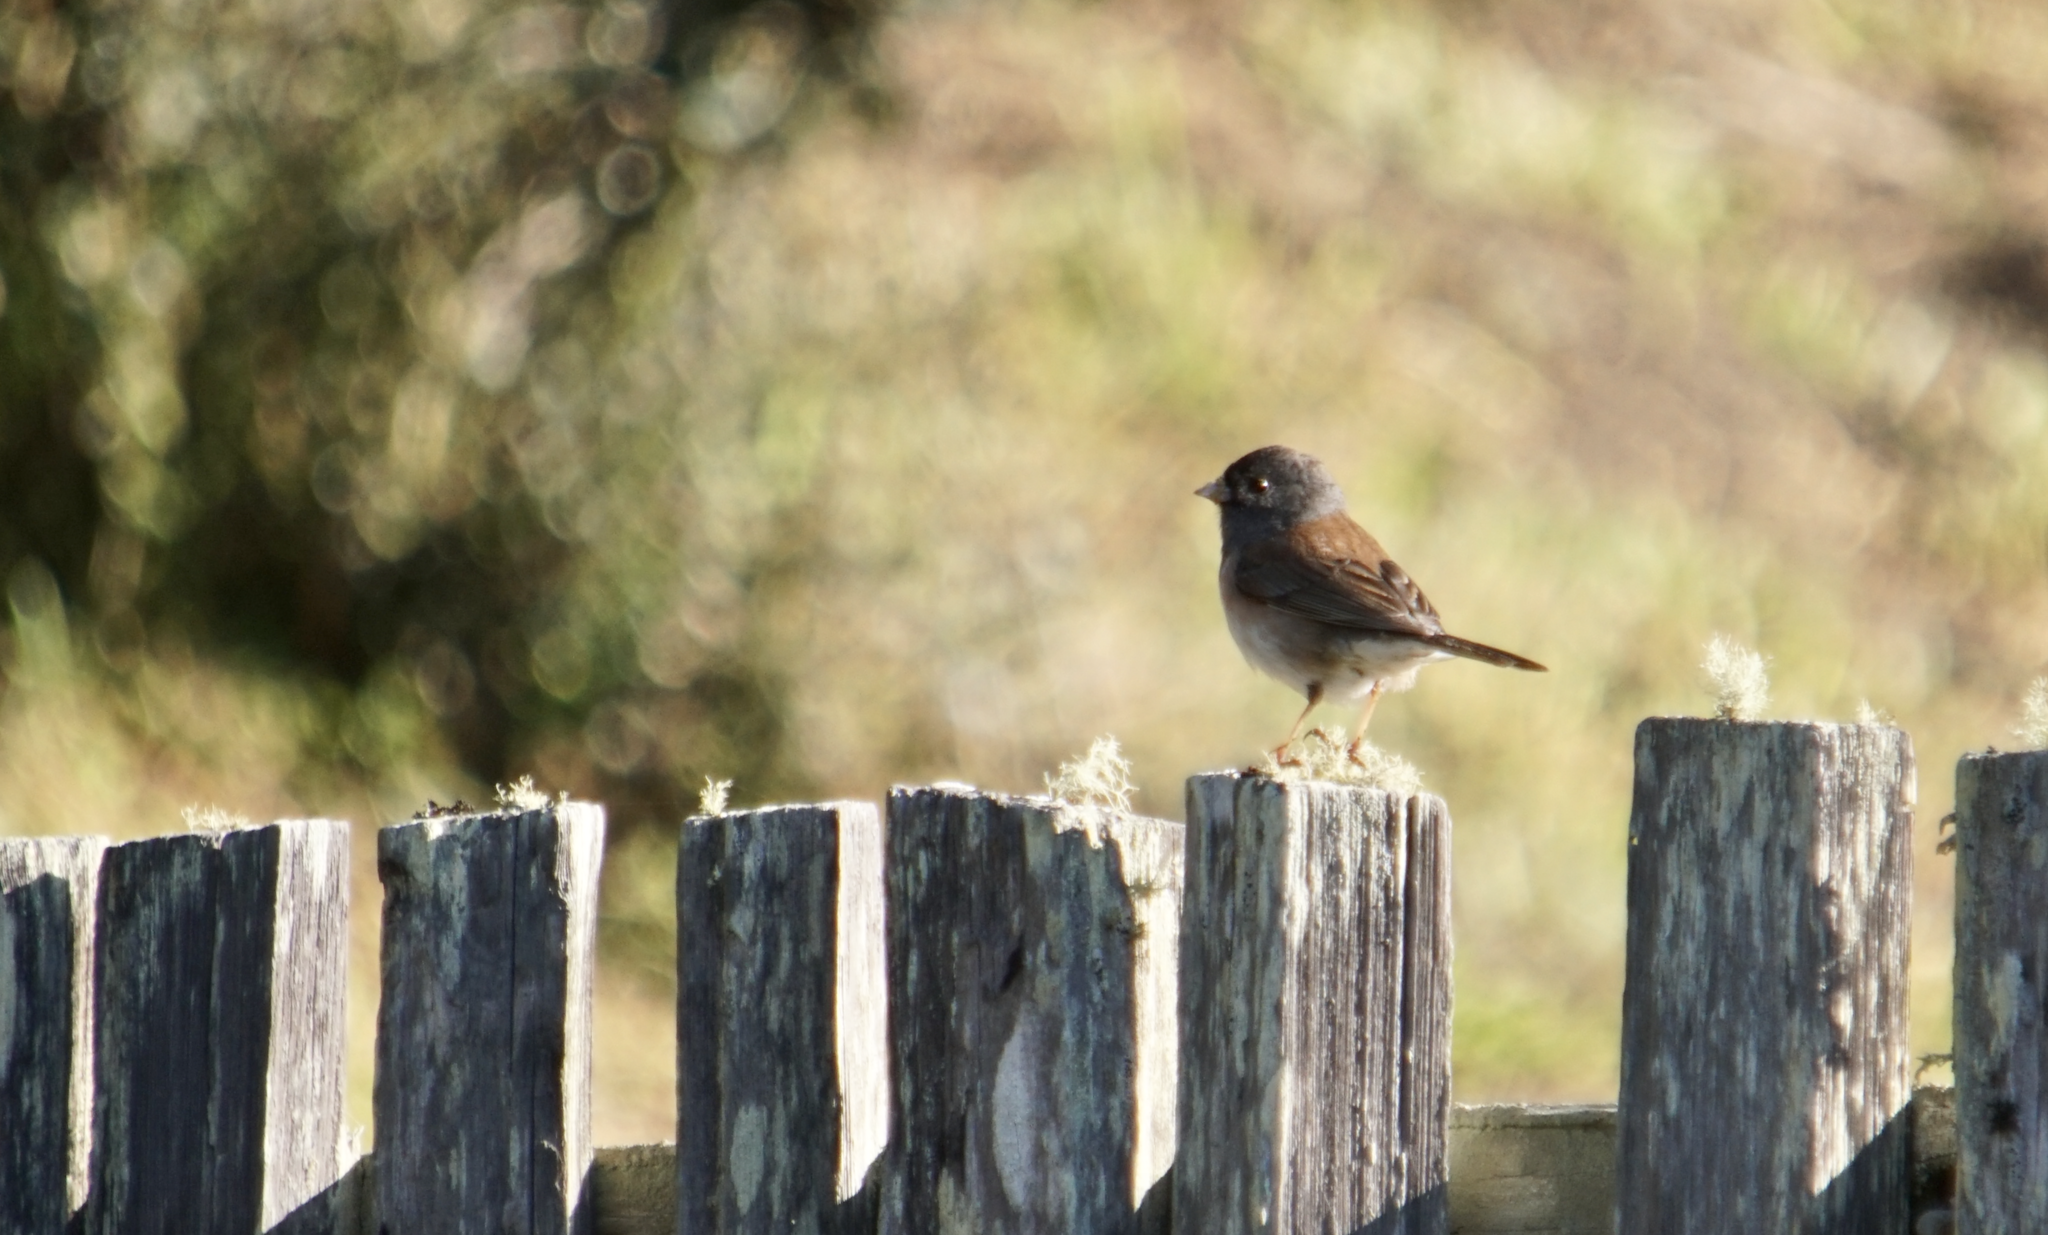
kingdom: Animalia
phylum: Chordata
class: Aves
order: Passeriformes
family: Passerellidae
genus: Junco
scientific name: Junco hyemalis
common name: Dark-eyed junco
